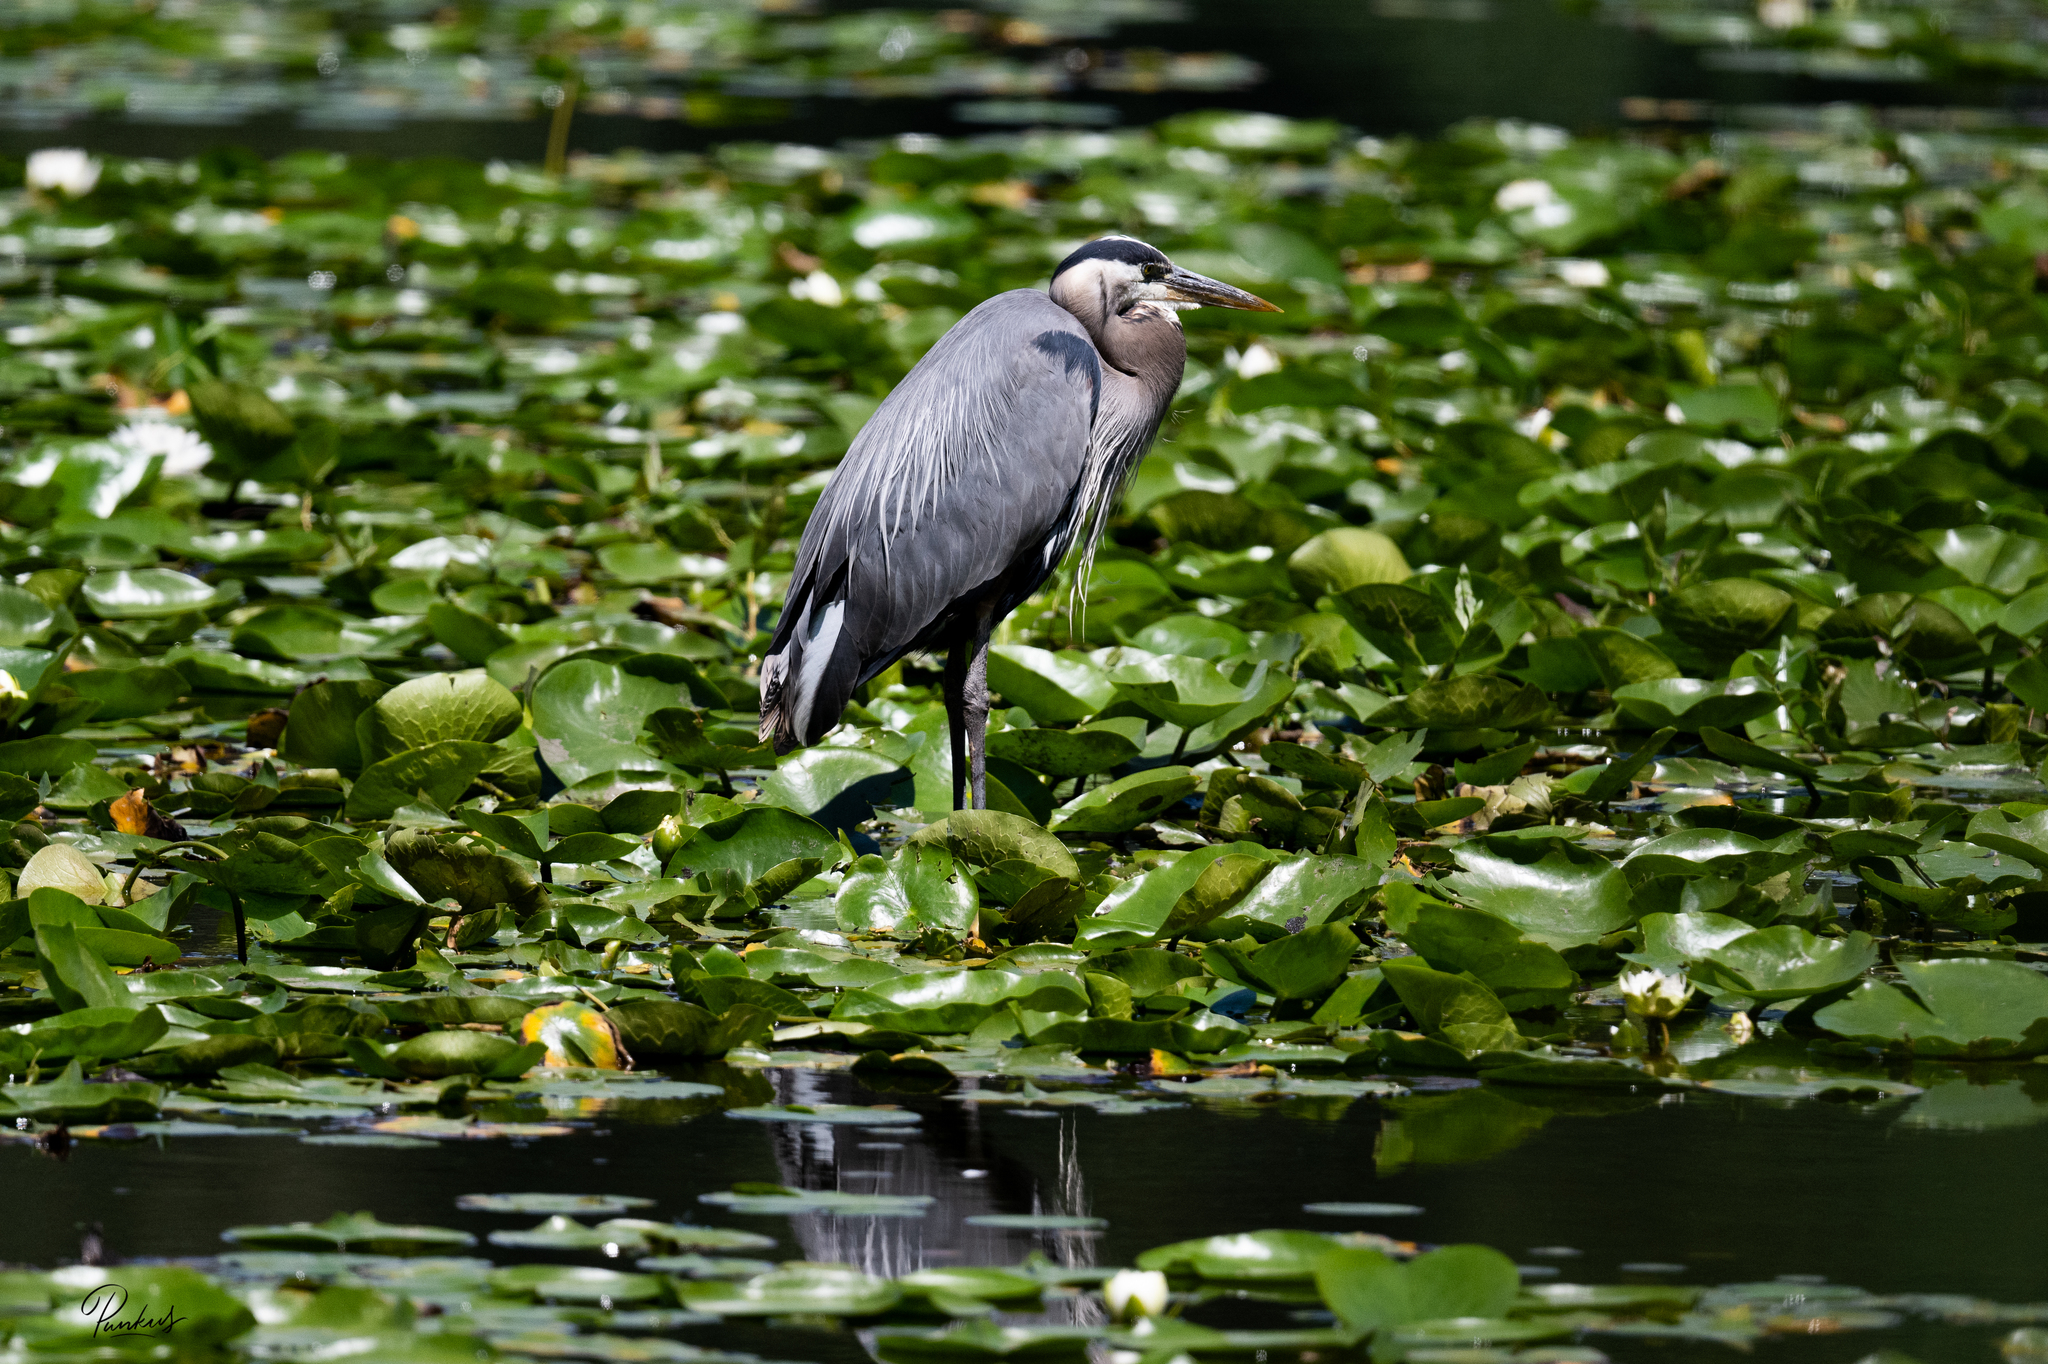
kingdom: Animalia
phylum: Chordata
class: Aves
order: Pelecaniformes
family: Ardeidae
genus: Ardea
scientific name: Ardea herodias
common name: Great blue heron
